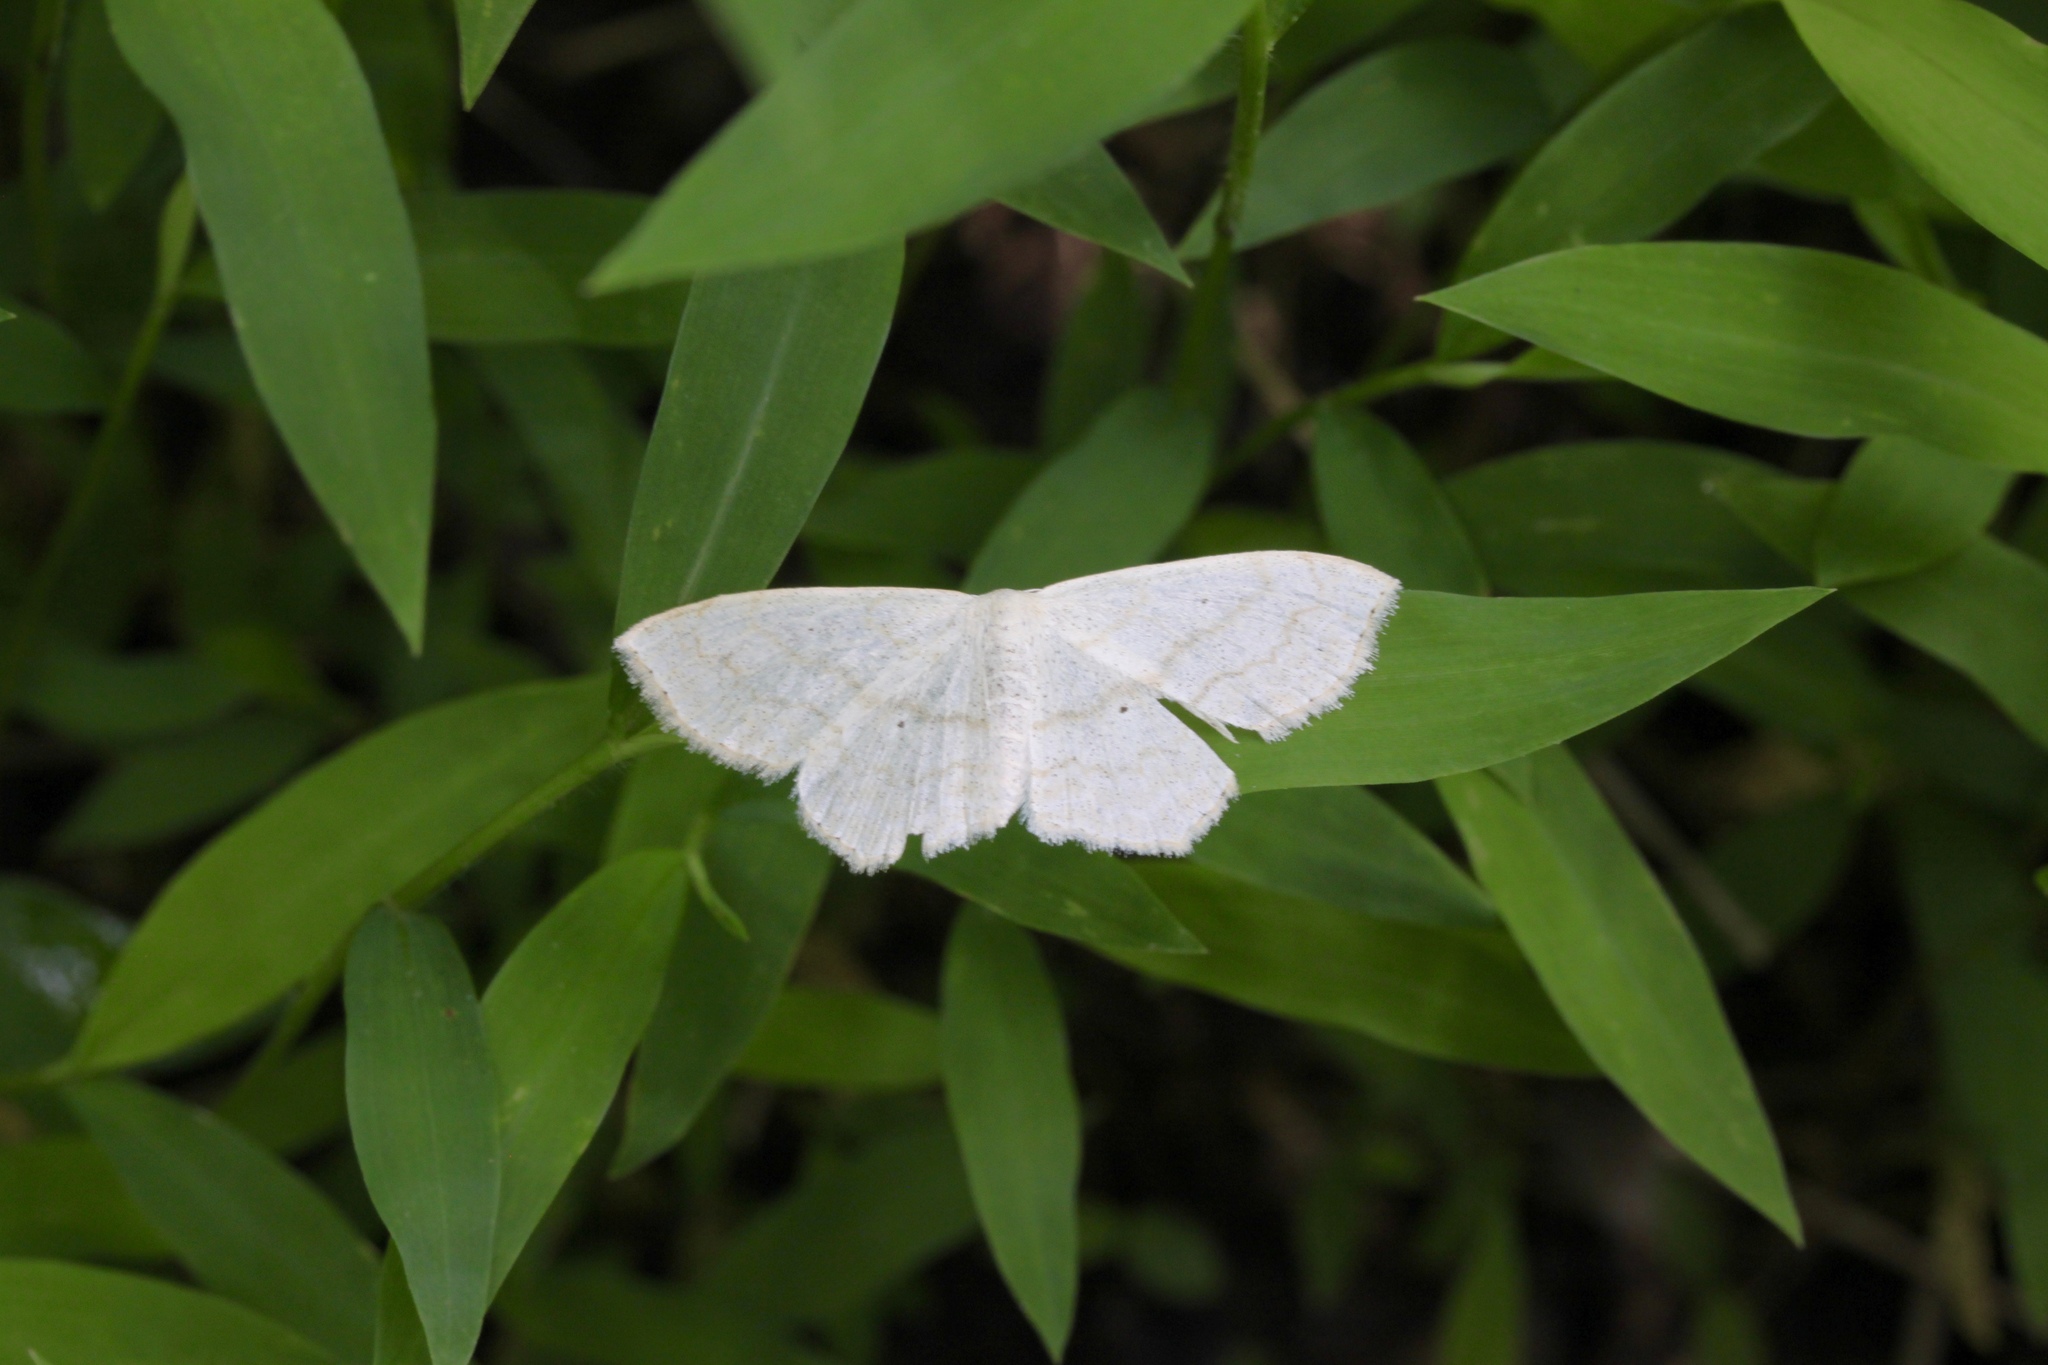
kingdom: Animalia
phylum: Arthropoda
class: Insecta
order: Lepidoptera
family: Geometridae
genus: Scopula
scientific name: Scopula limboundata
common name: Large lace border
